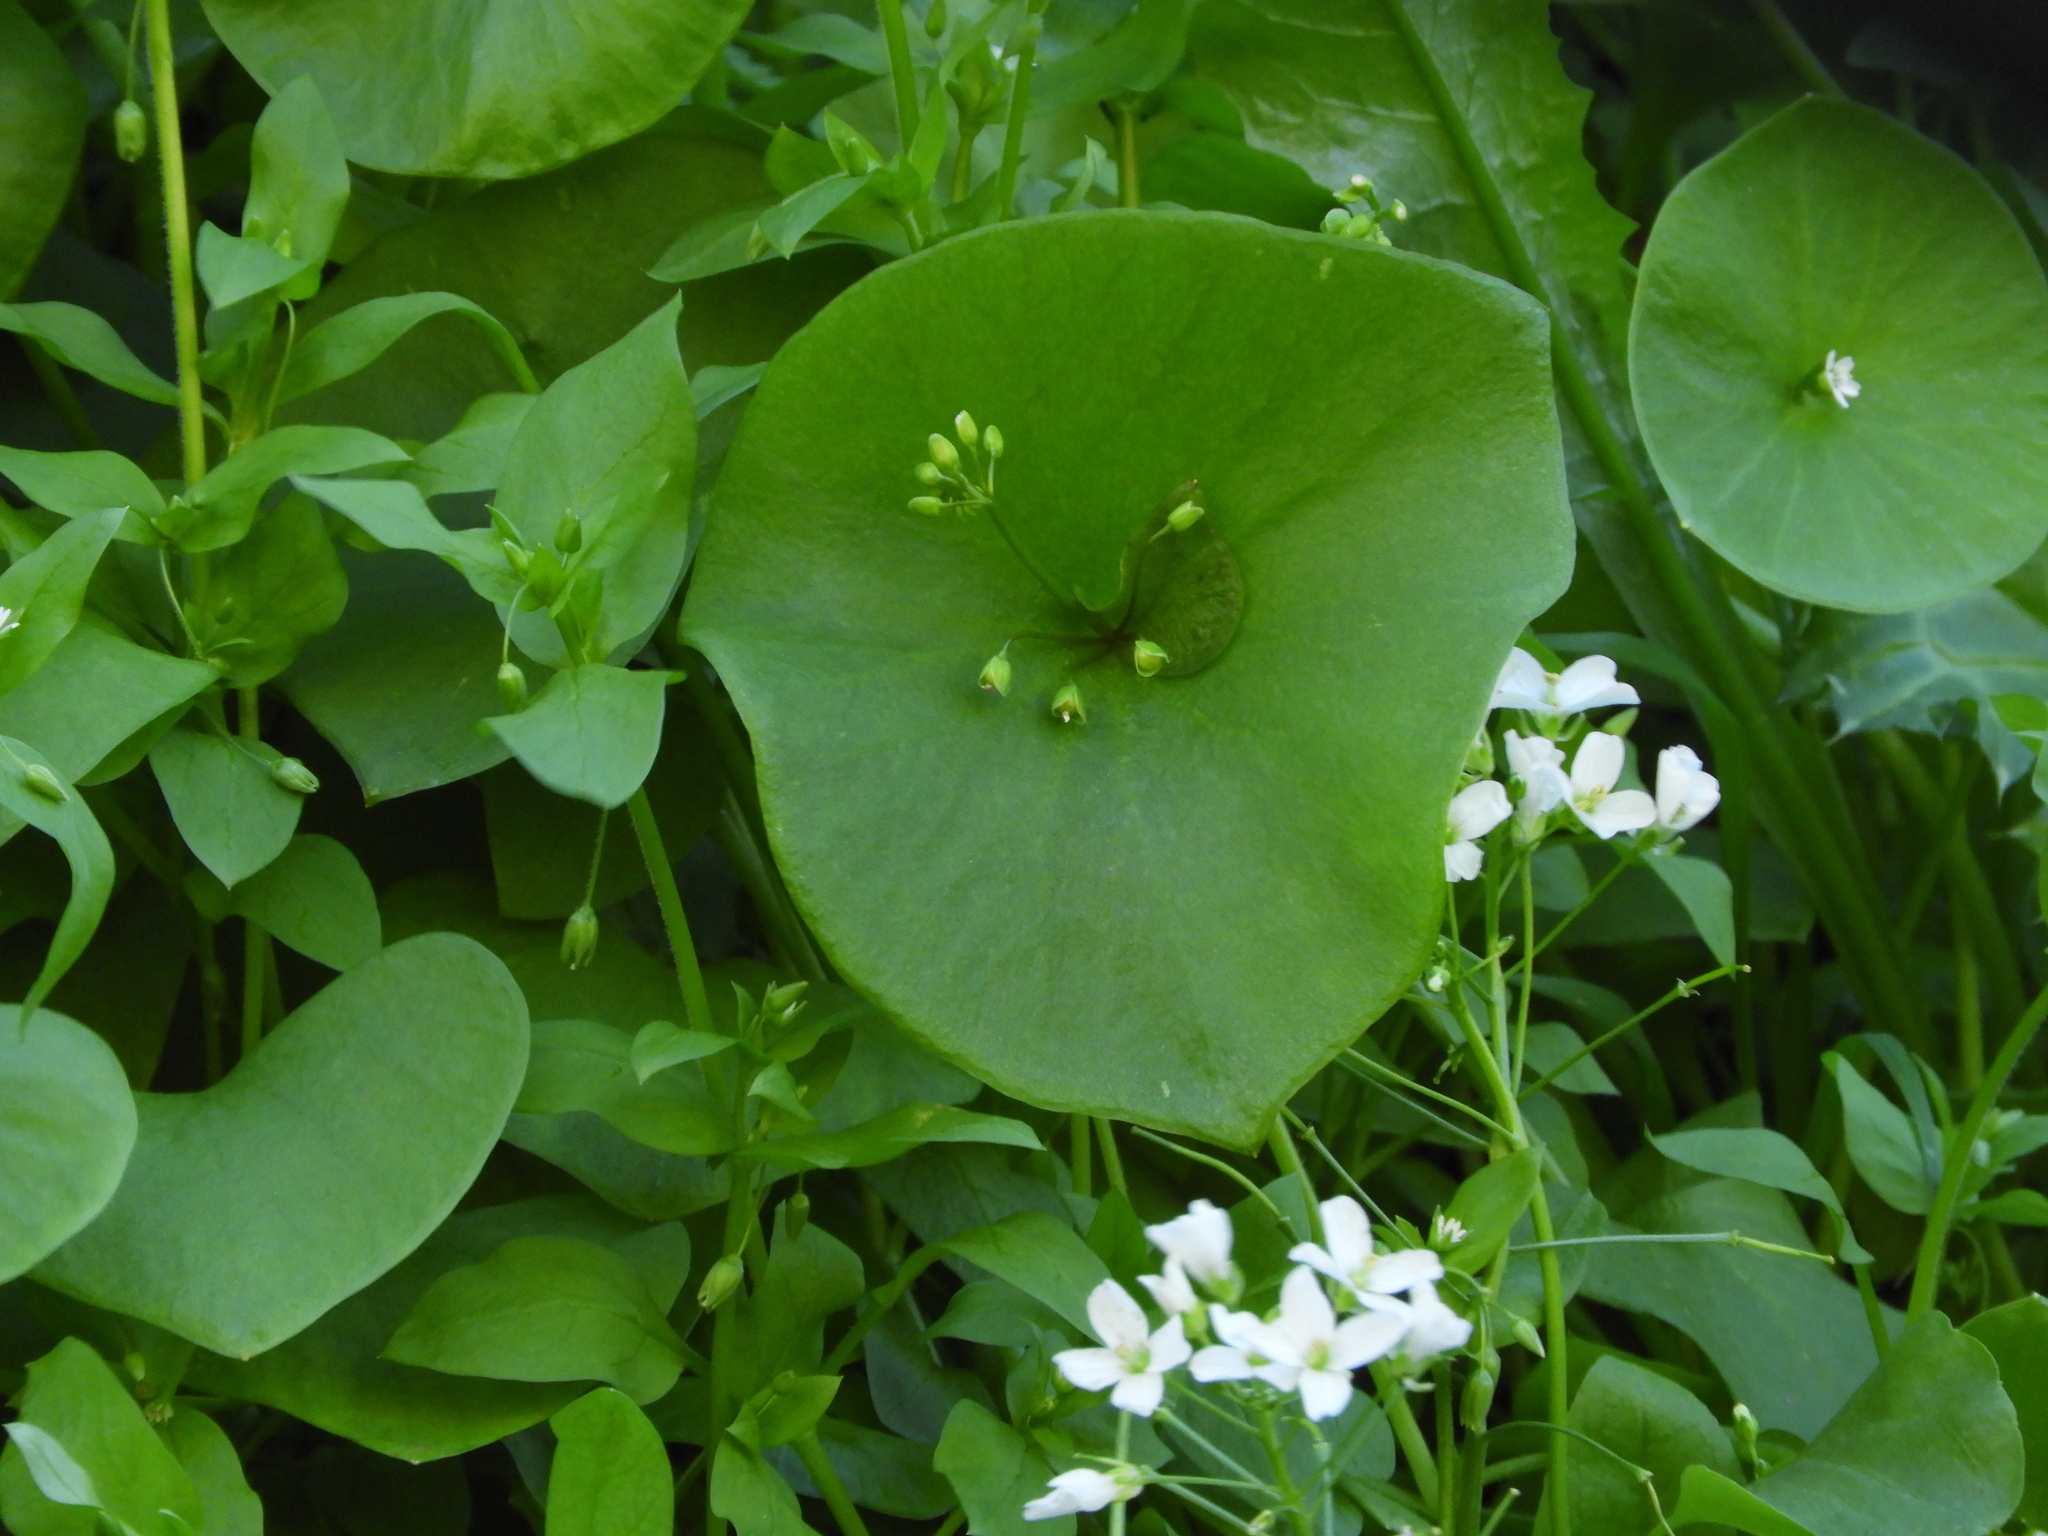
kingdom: Plantae
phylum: Tracheophyta
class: Magnoliopsida
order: Caryophyllales
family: Montiaceae
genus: Claytonia
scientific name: Claytonia perfoliata
